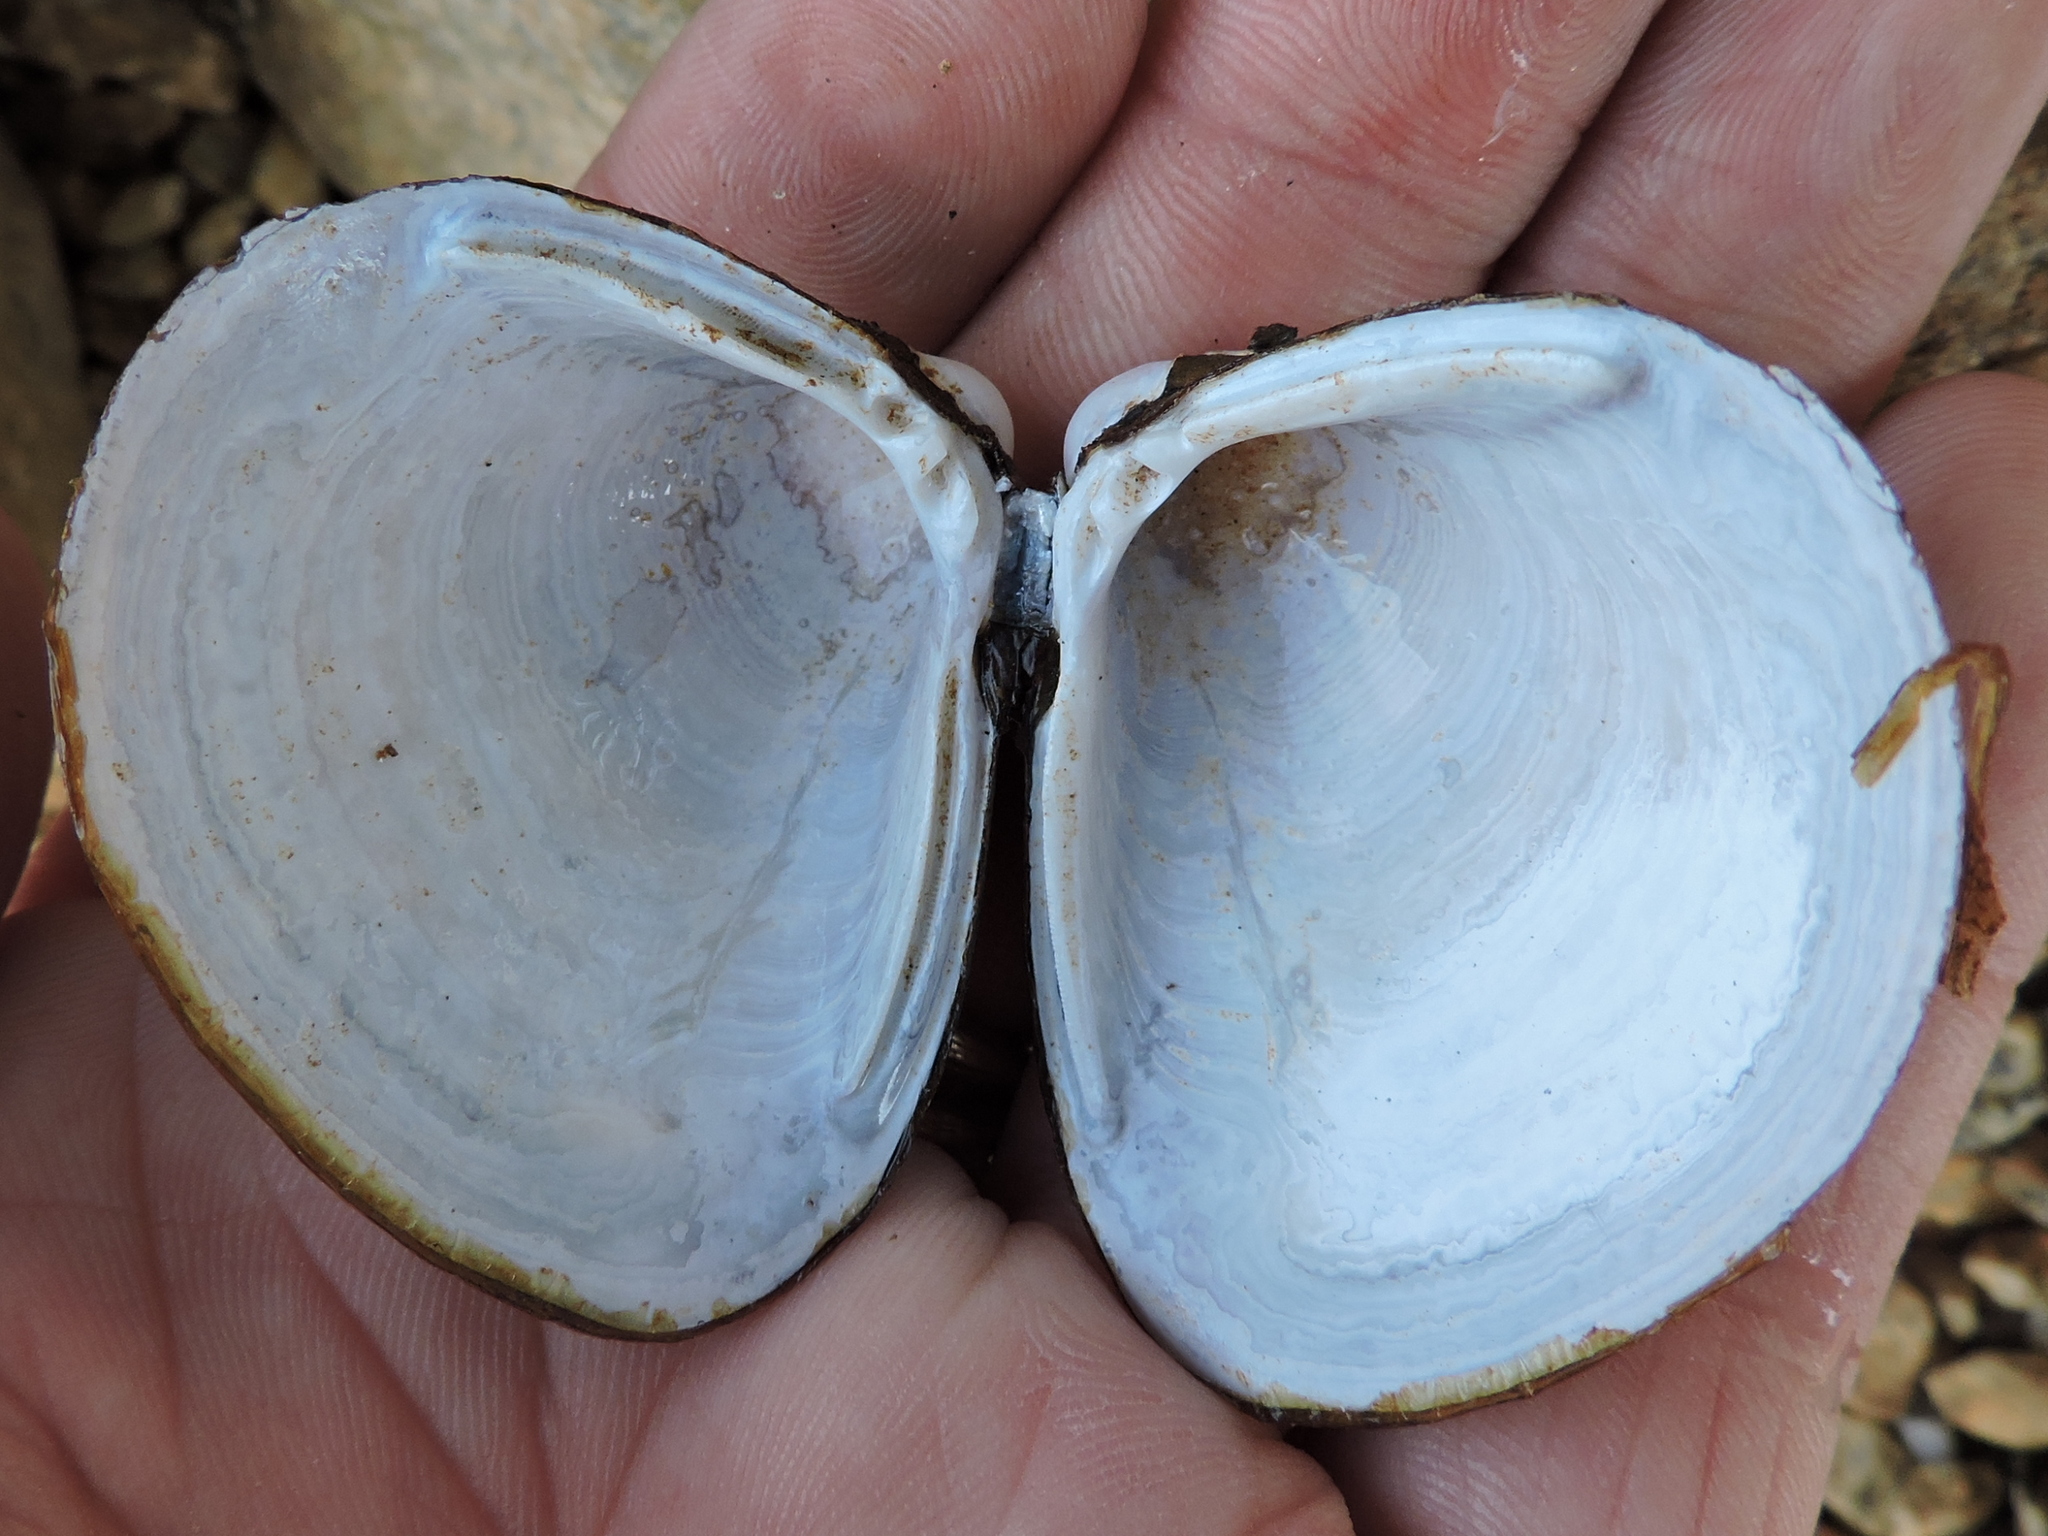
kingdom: Animalia
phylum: Mollusca
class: Bivalvia
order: Venerida
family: Cyrenidae
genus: Corbicula
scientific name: Corbicula fluminea
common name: Asian clam
